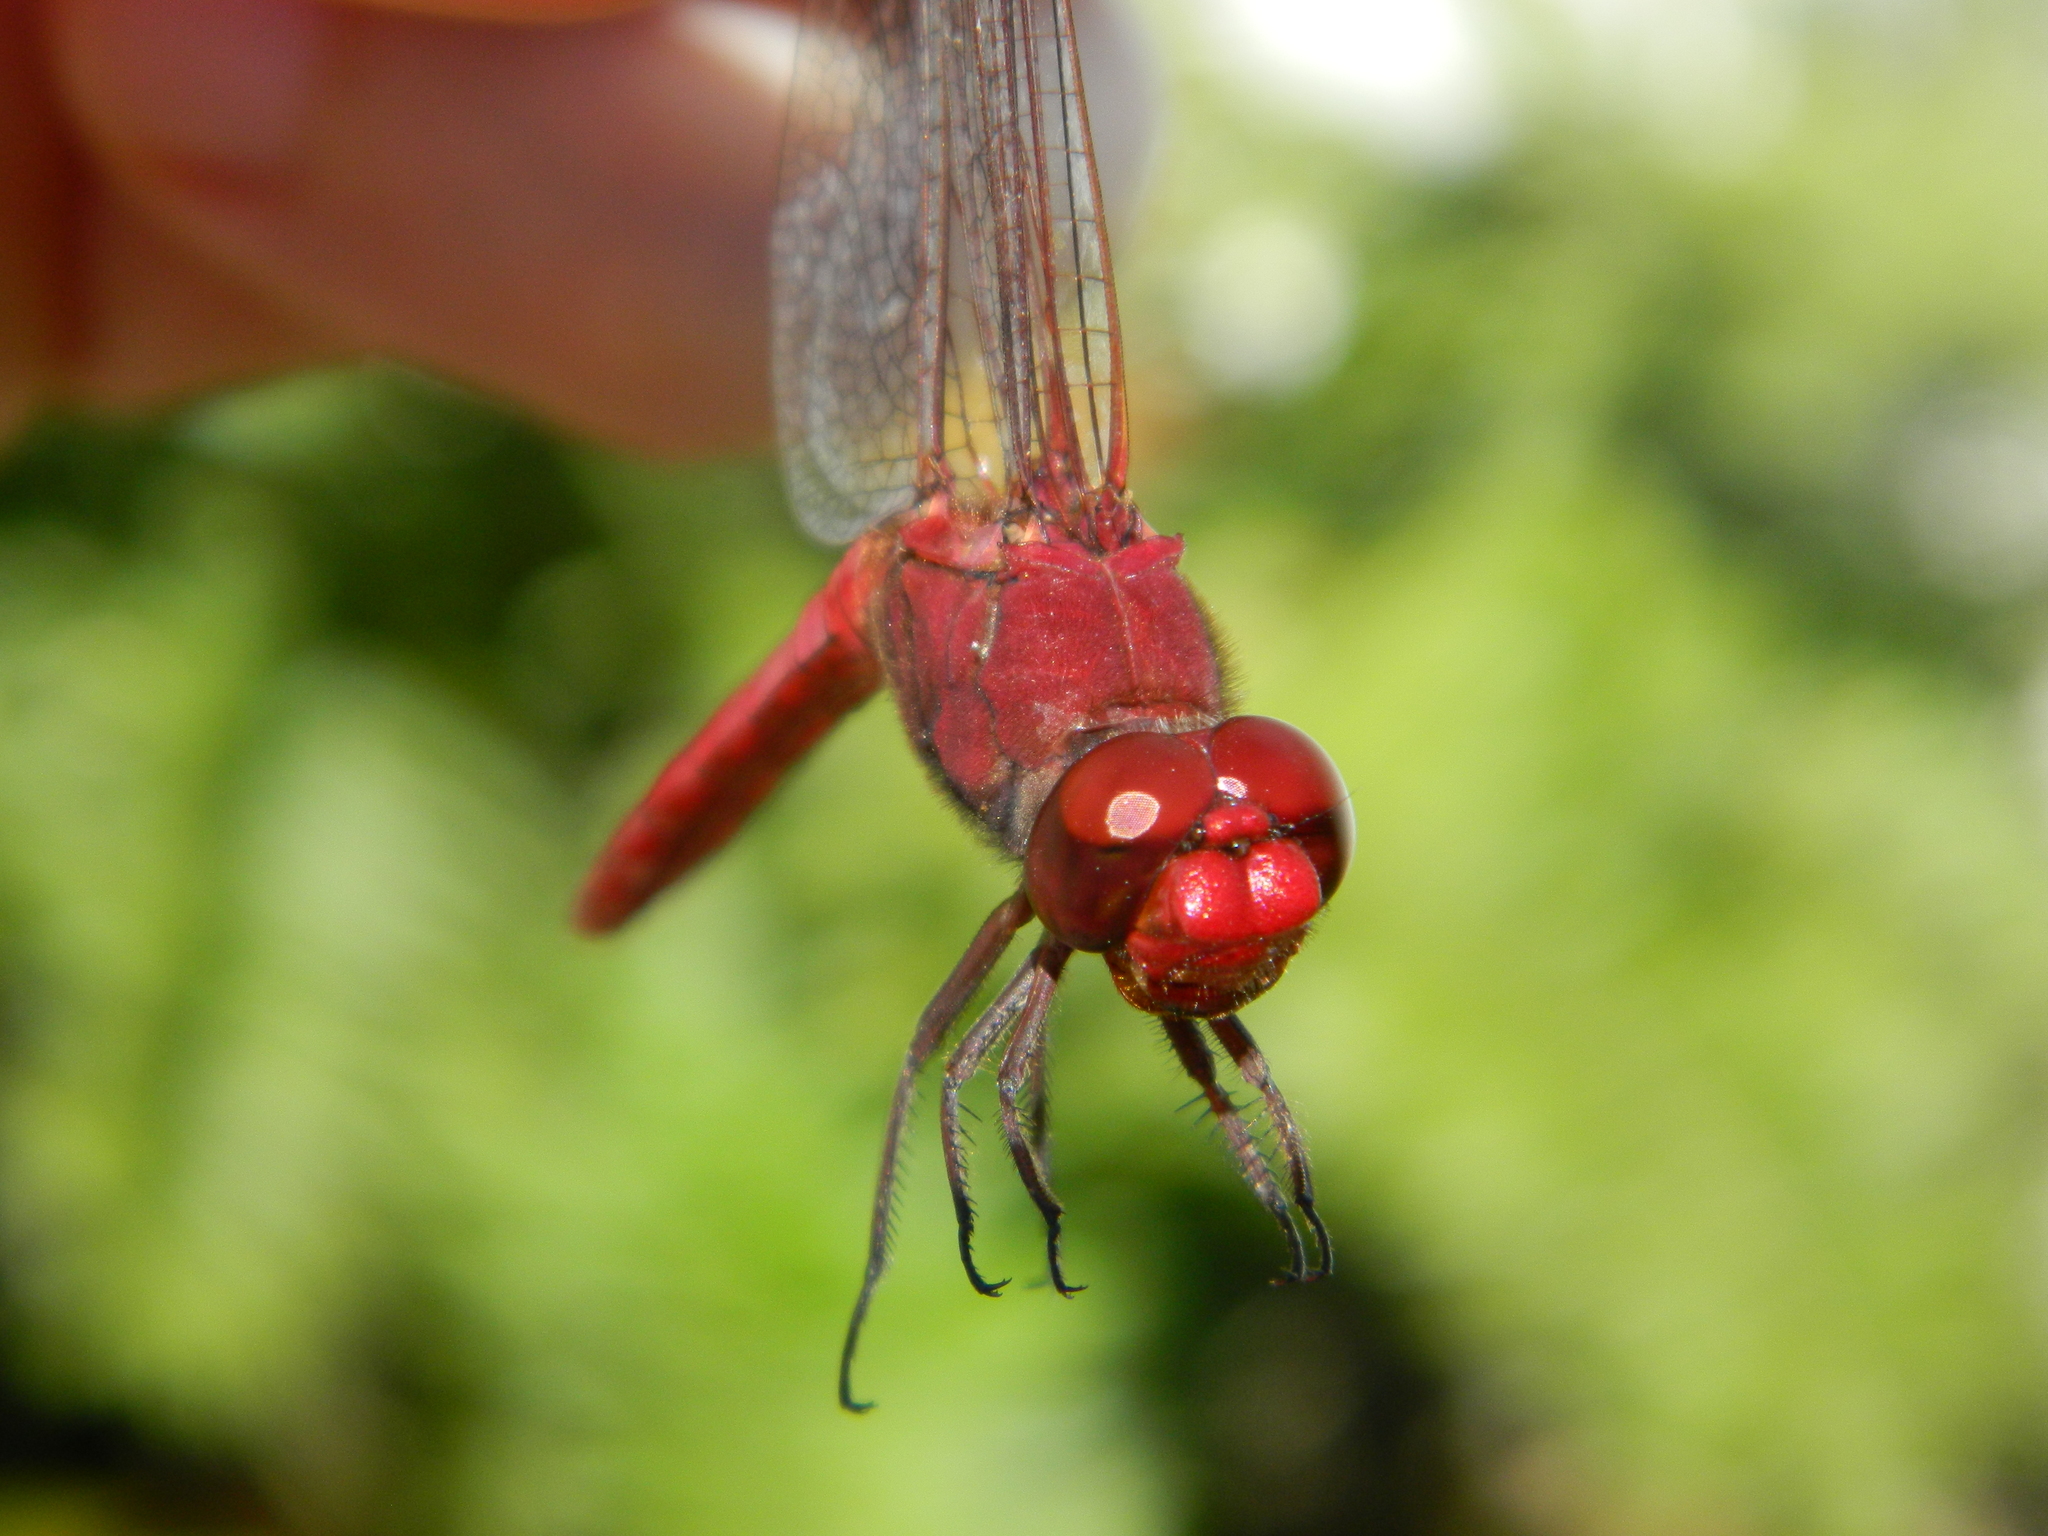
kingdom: Animalia
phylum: Arthropoda
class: Insecta
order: Odonata
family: Libellulidae
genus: Orthemis
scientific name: Orthemis
